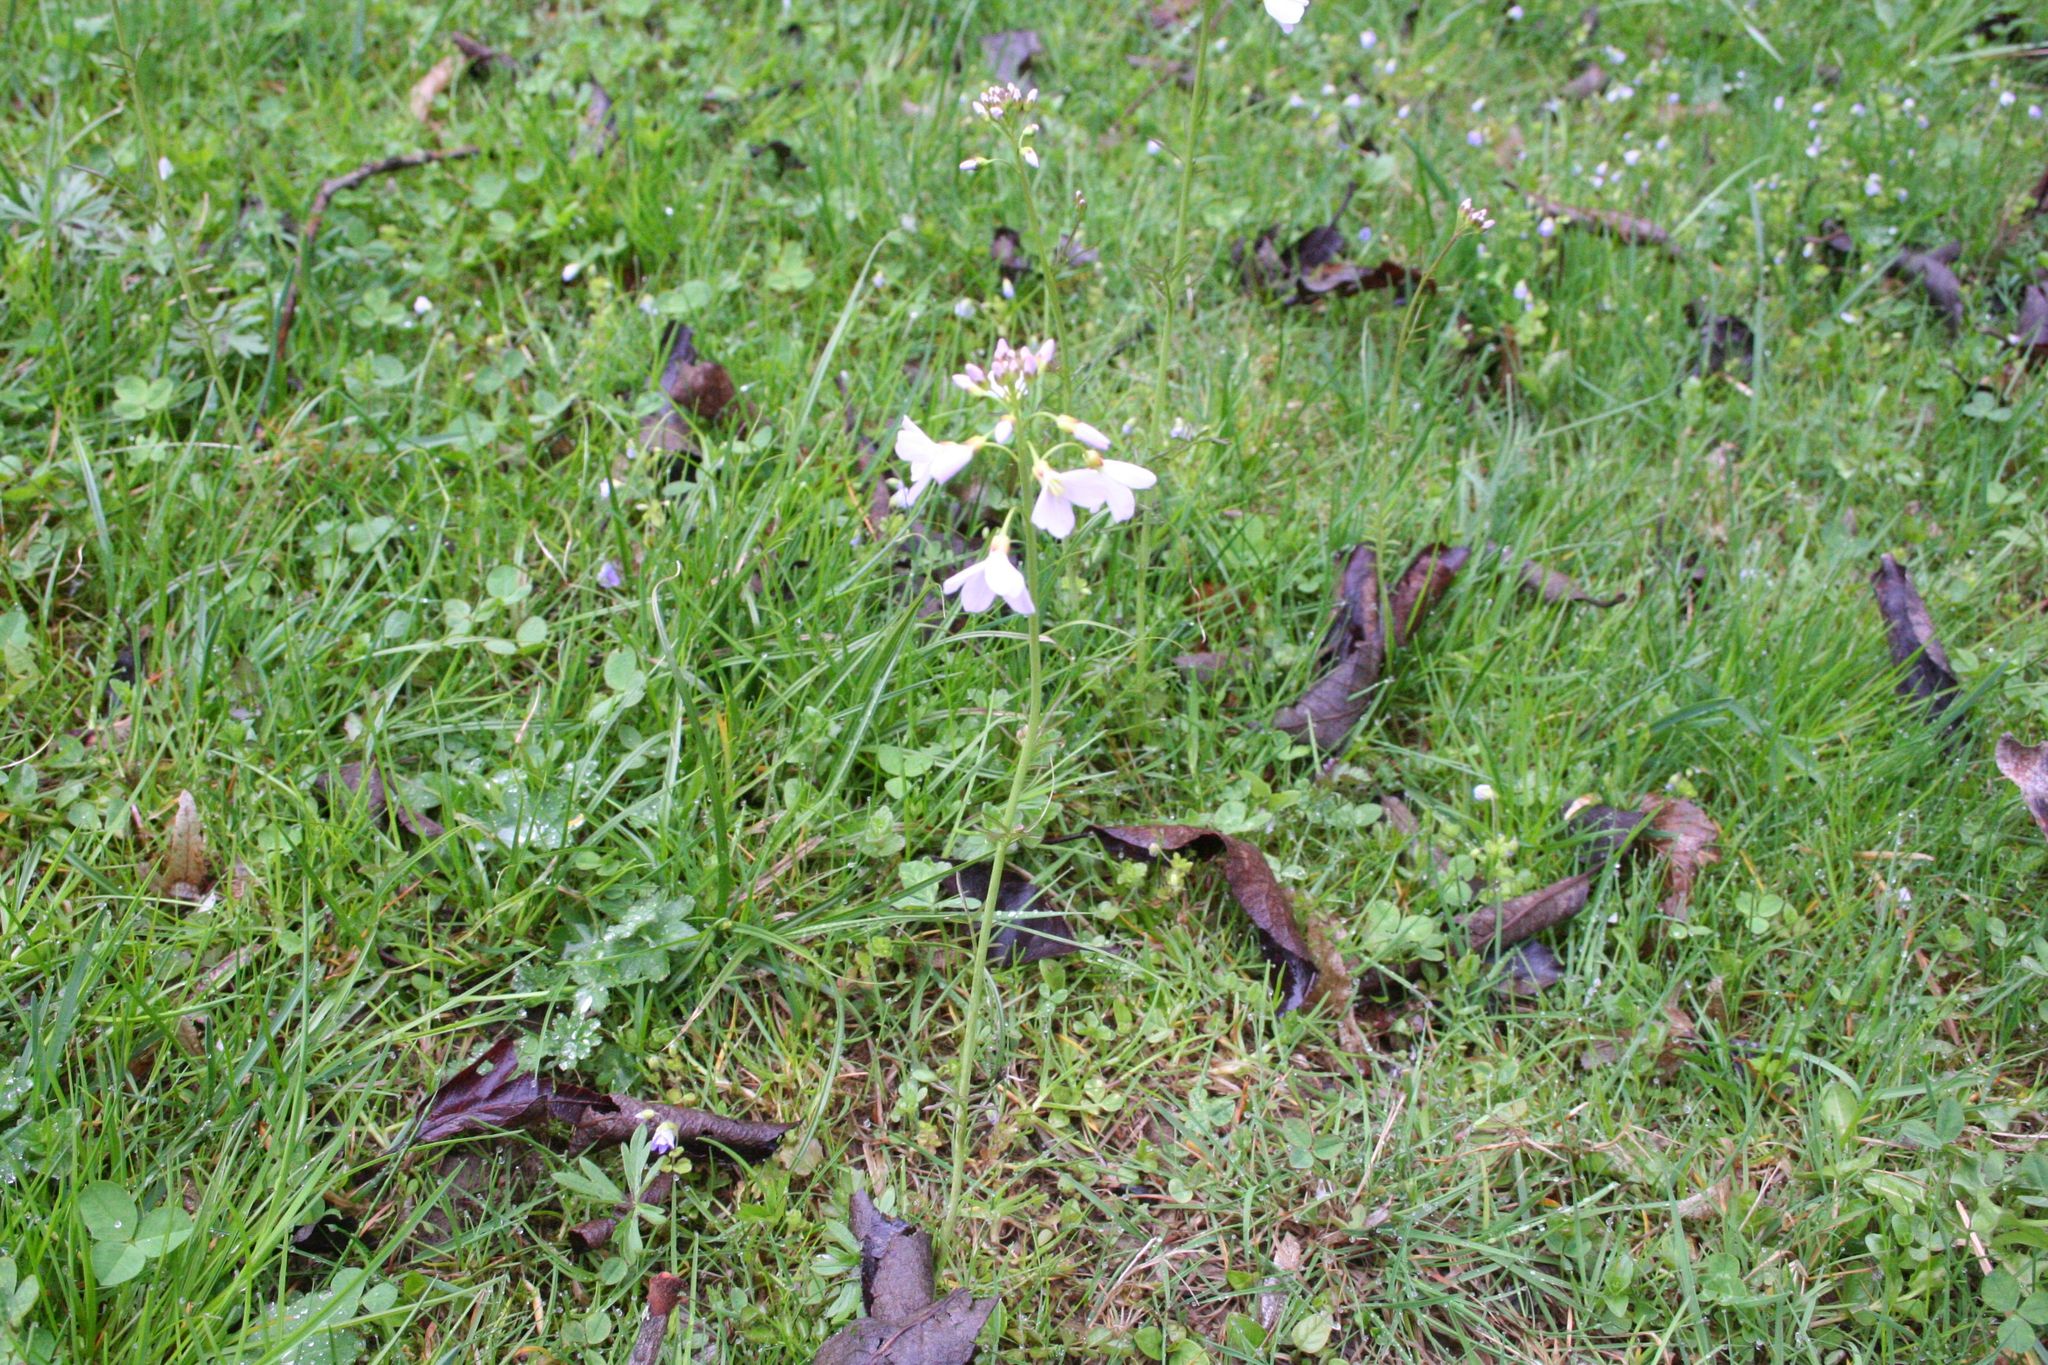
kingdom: Plantae
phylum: Tracheophyta
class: Magnoliopsida
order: Brassicales
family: Brassicaceae
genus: Cardamine
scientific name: Cardamine pratensis
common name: Cuckoo flower
